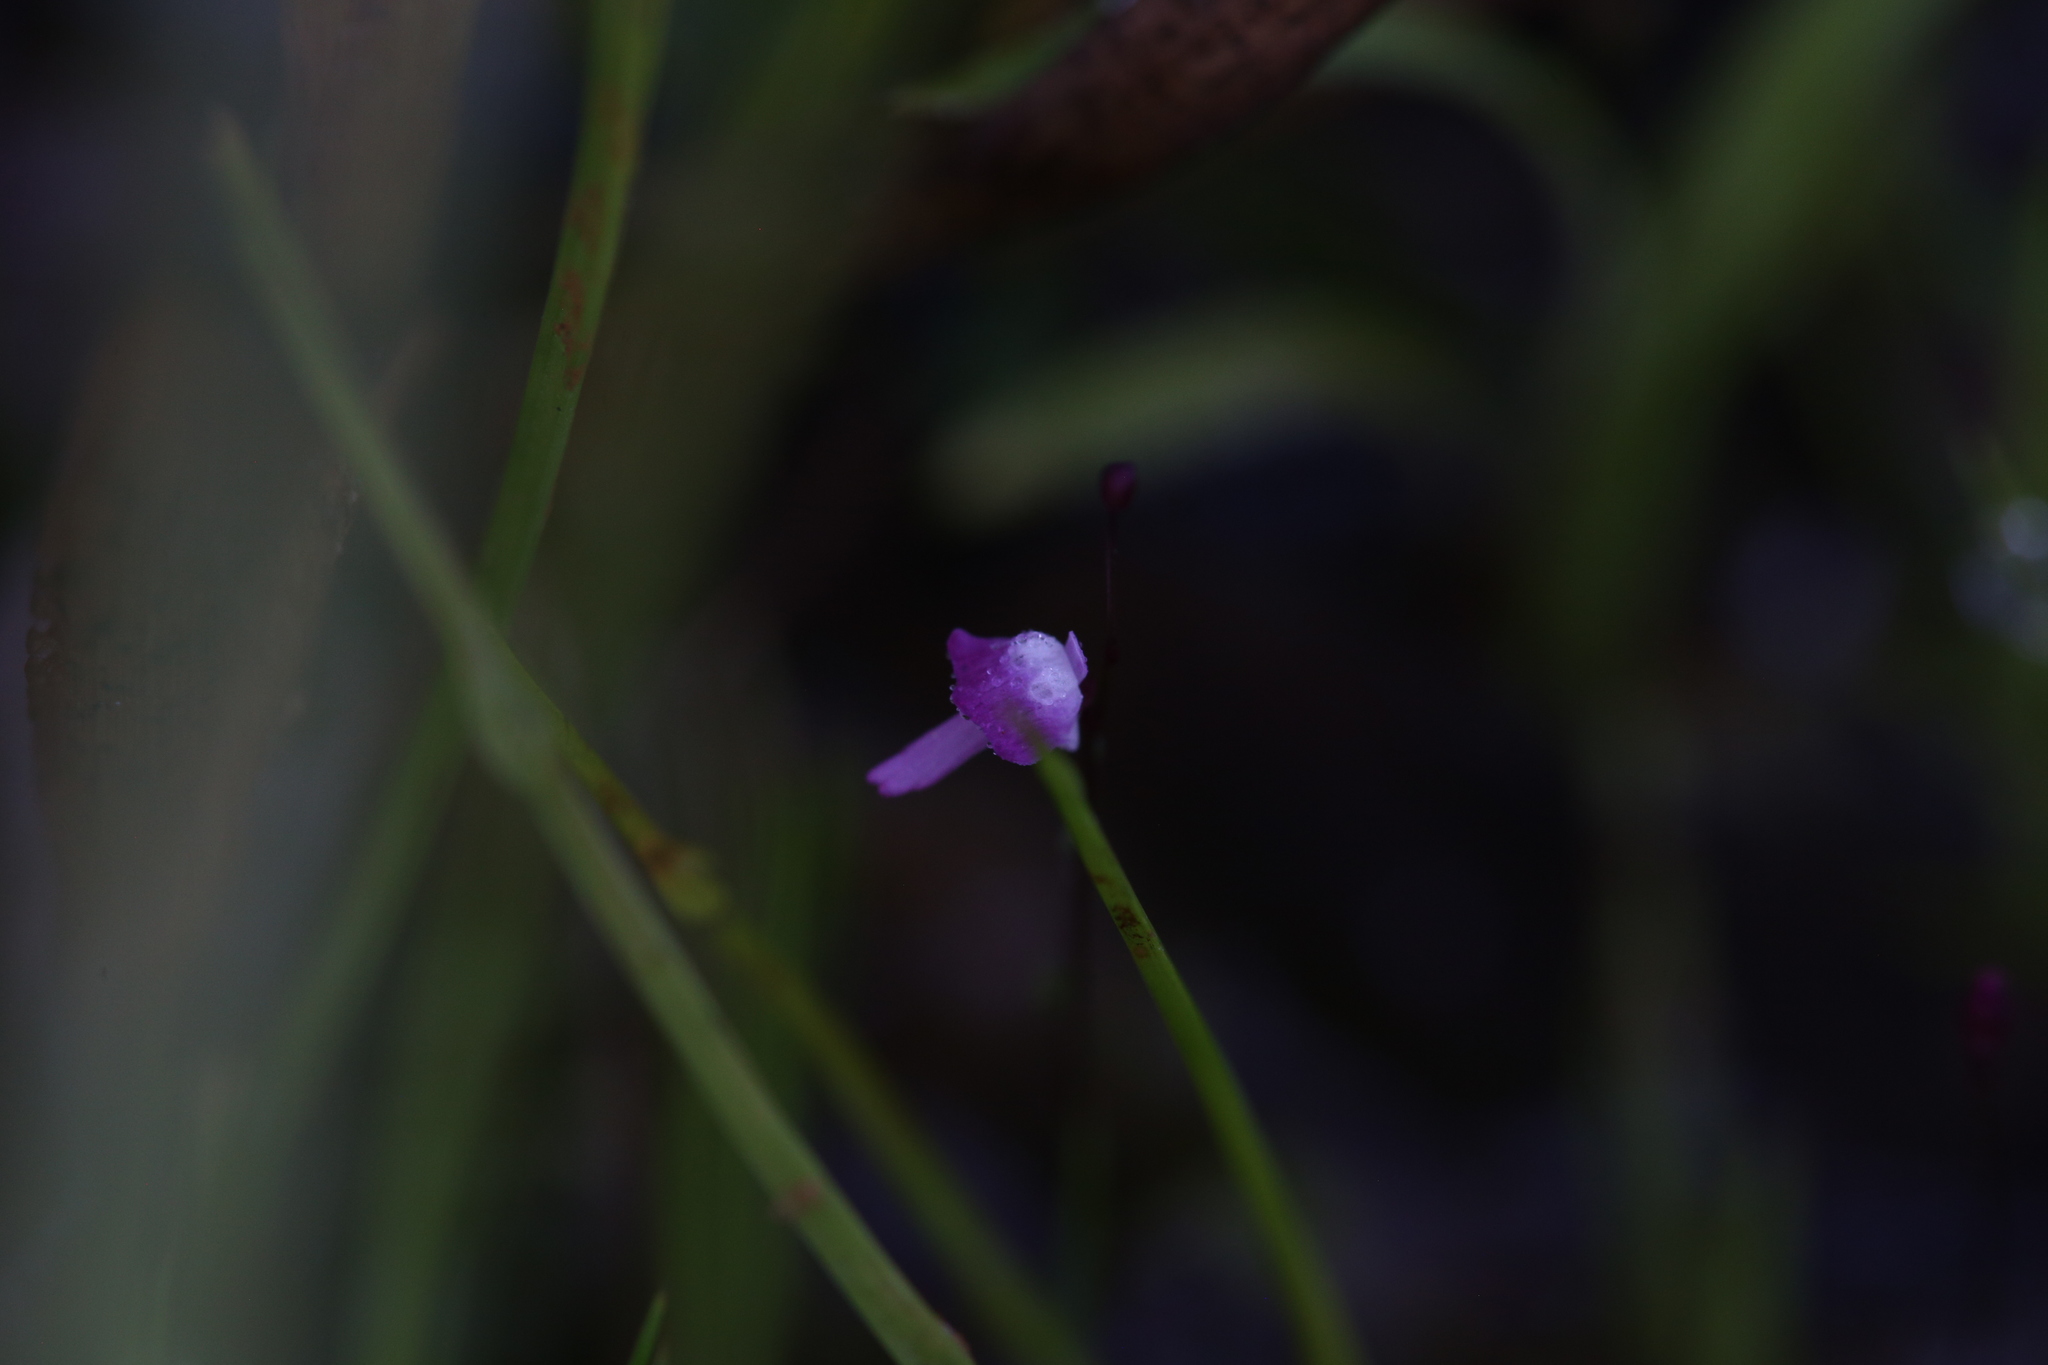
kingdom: Plantae
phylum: Tracheophyta
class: Magnoliopsida
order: Lamiales
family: Lentibulariaceae
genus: Utricularia
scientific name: Utricularia minutissima
